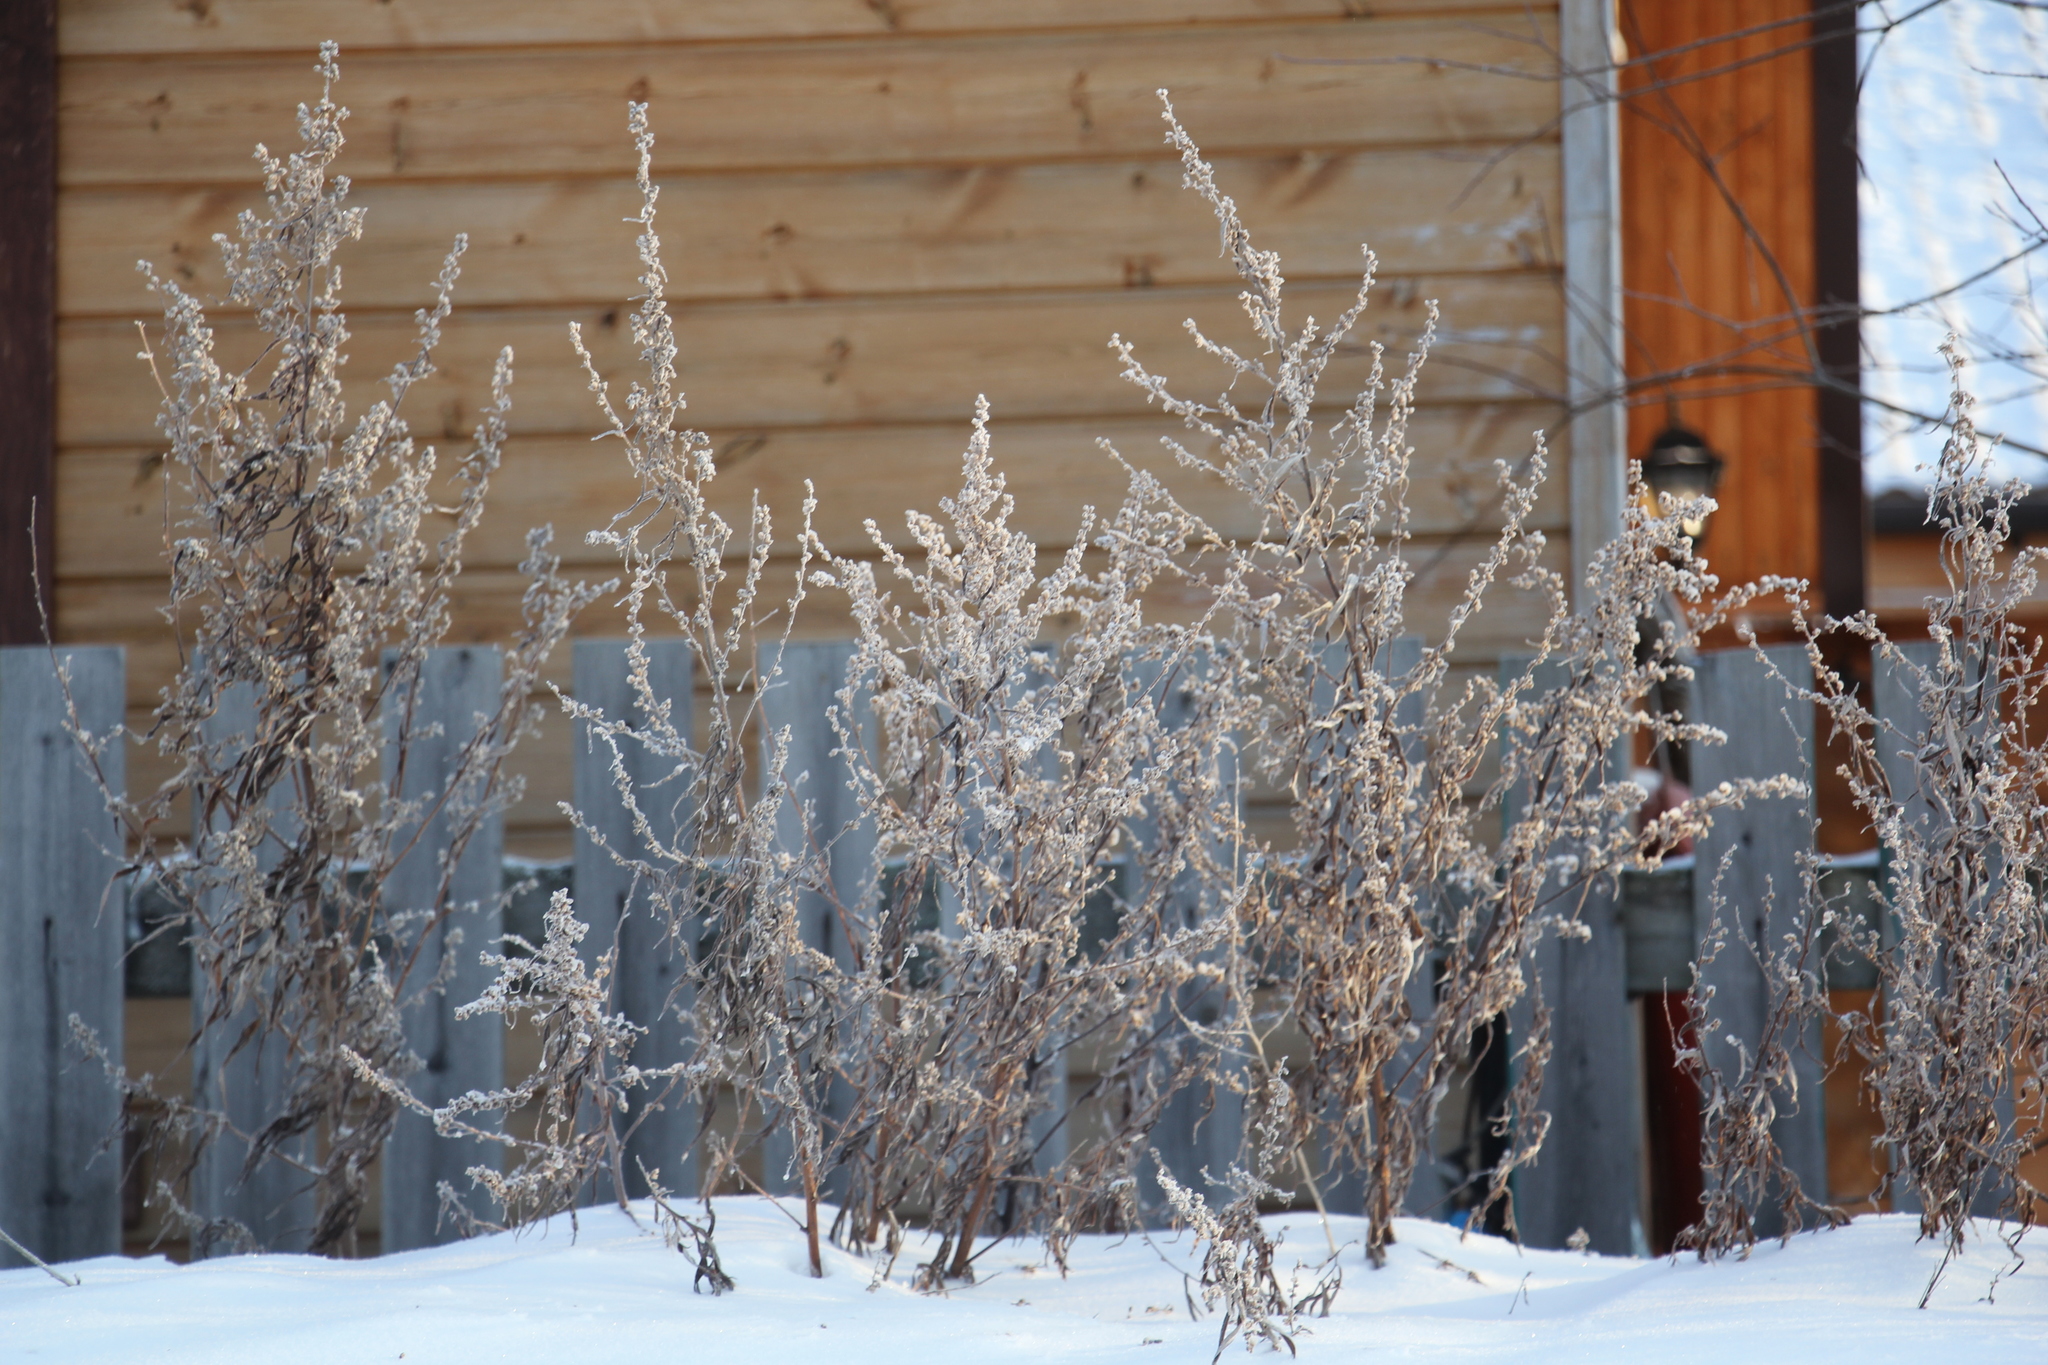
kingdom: Plantae
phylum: Tracheophyta
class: Magnoliopsida
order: Asterales
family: Asteraceae
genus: Artemisia
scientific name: Artemisia vulgaris
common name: Mugwort
